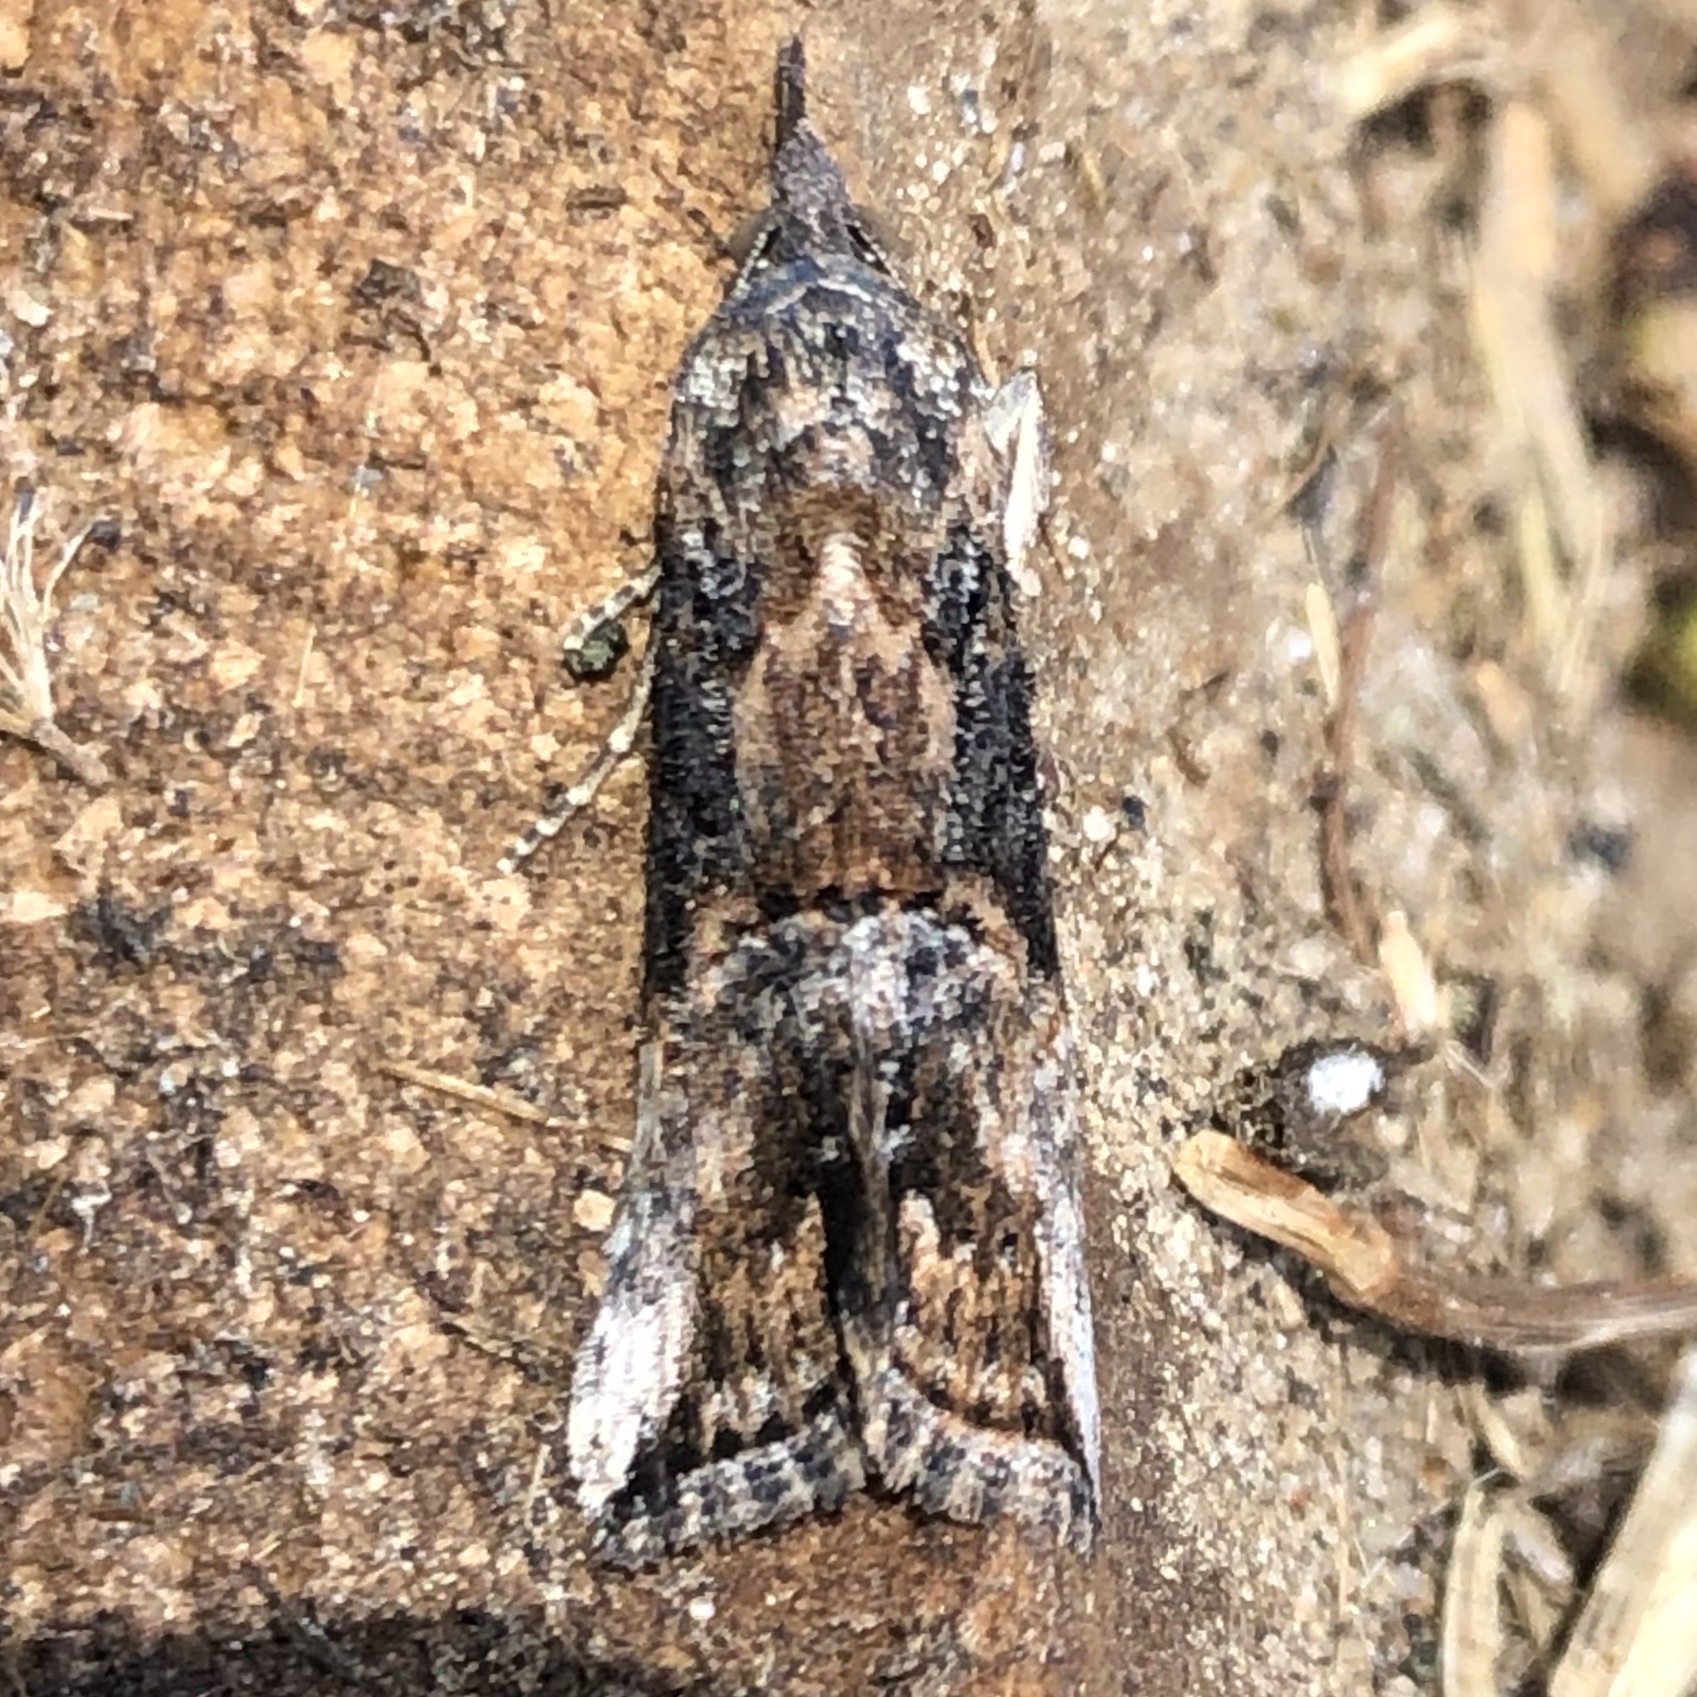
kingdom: Animalia
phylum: Arthropoda
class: Insecta
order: Lepidoptera
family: Erebidae
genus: Hypena
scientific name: Hypena scabra
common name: Green cloverworm
